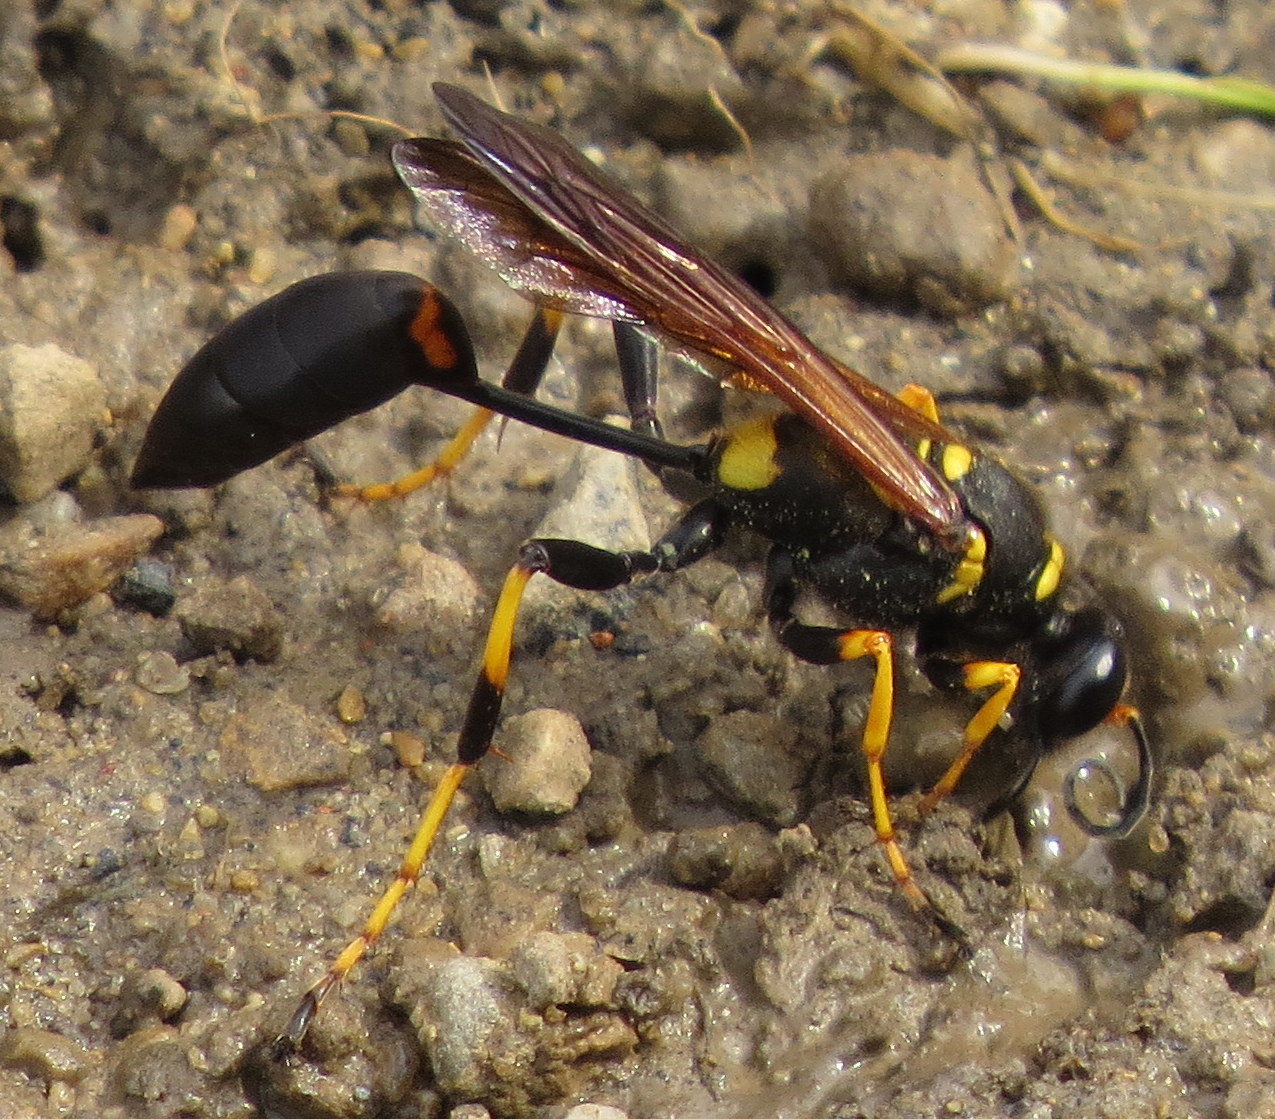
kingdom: Animalia
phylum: Arthropoda
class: Insecta
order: Hymenoptera
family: Sphecidae
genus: Sceliphron
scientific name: Sceliphron caementarium
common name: Mud dauber
